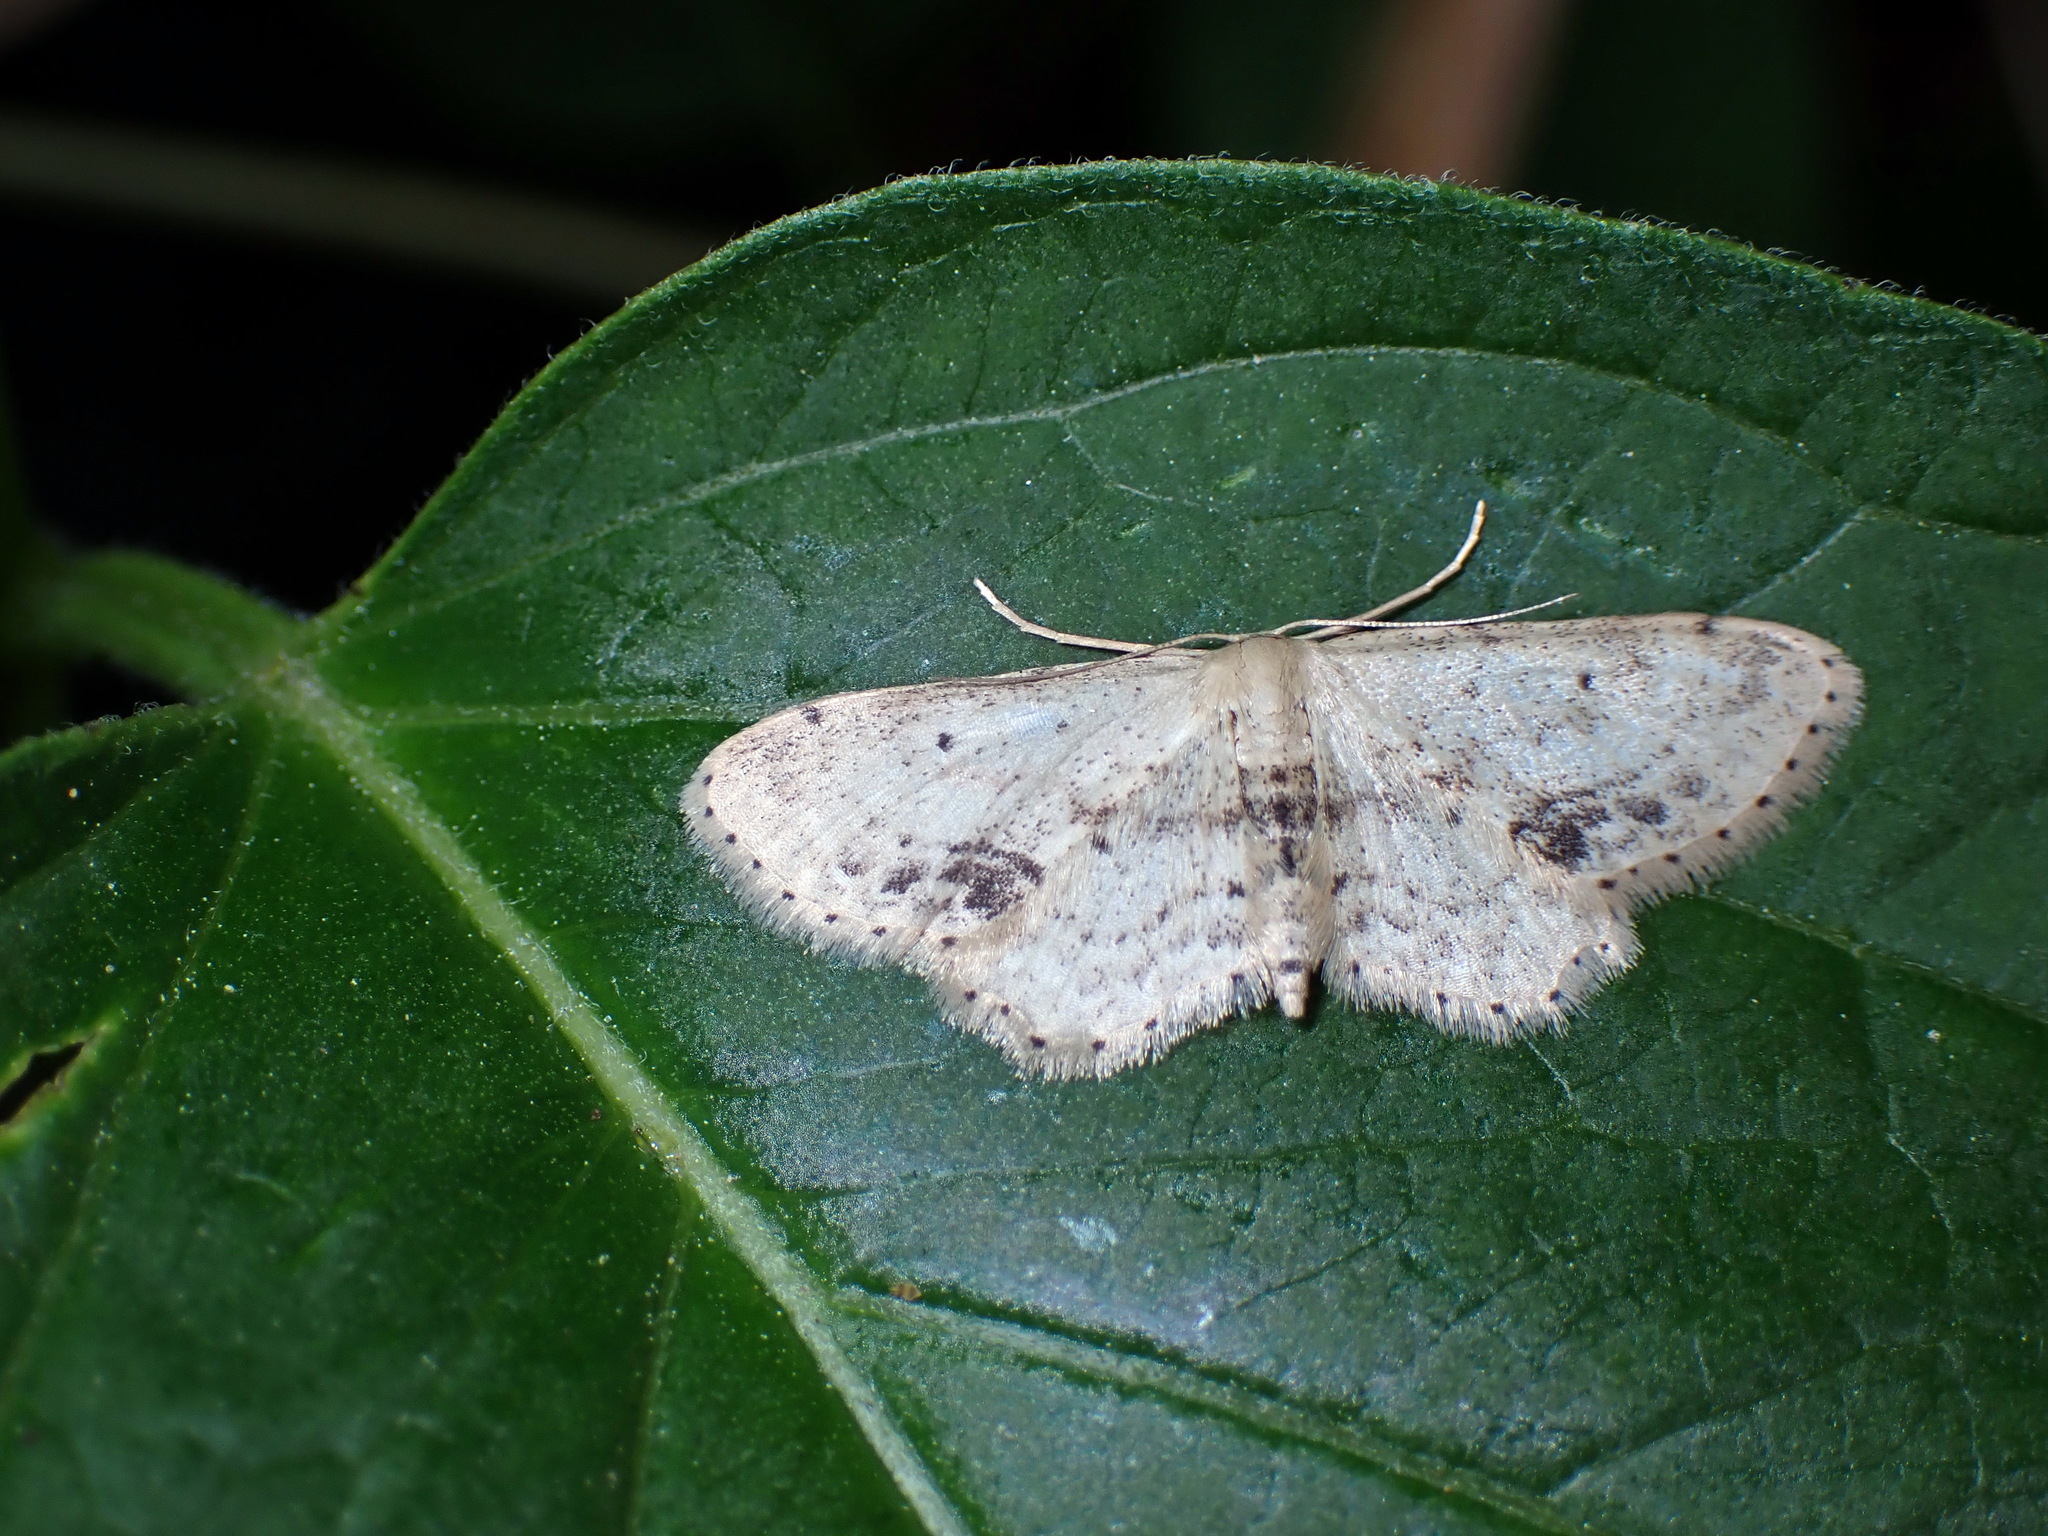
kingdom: Animalia
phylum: Arthropoda
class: Insecta
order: Lepidoptera
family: Geometridae
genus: Idaea
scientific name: Idaea dimidiata
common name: Single-dotted wave
